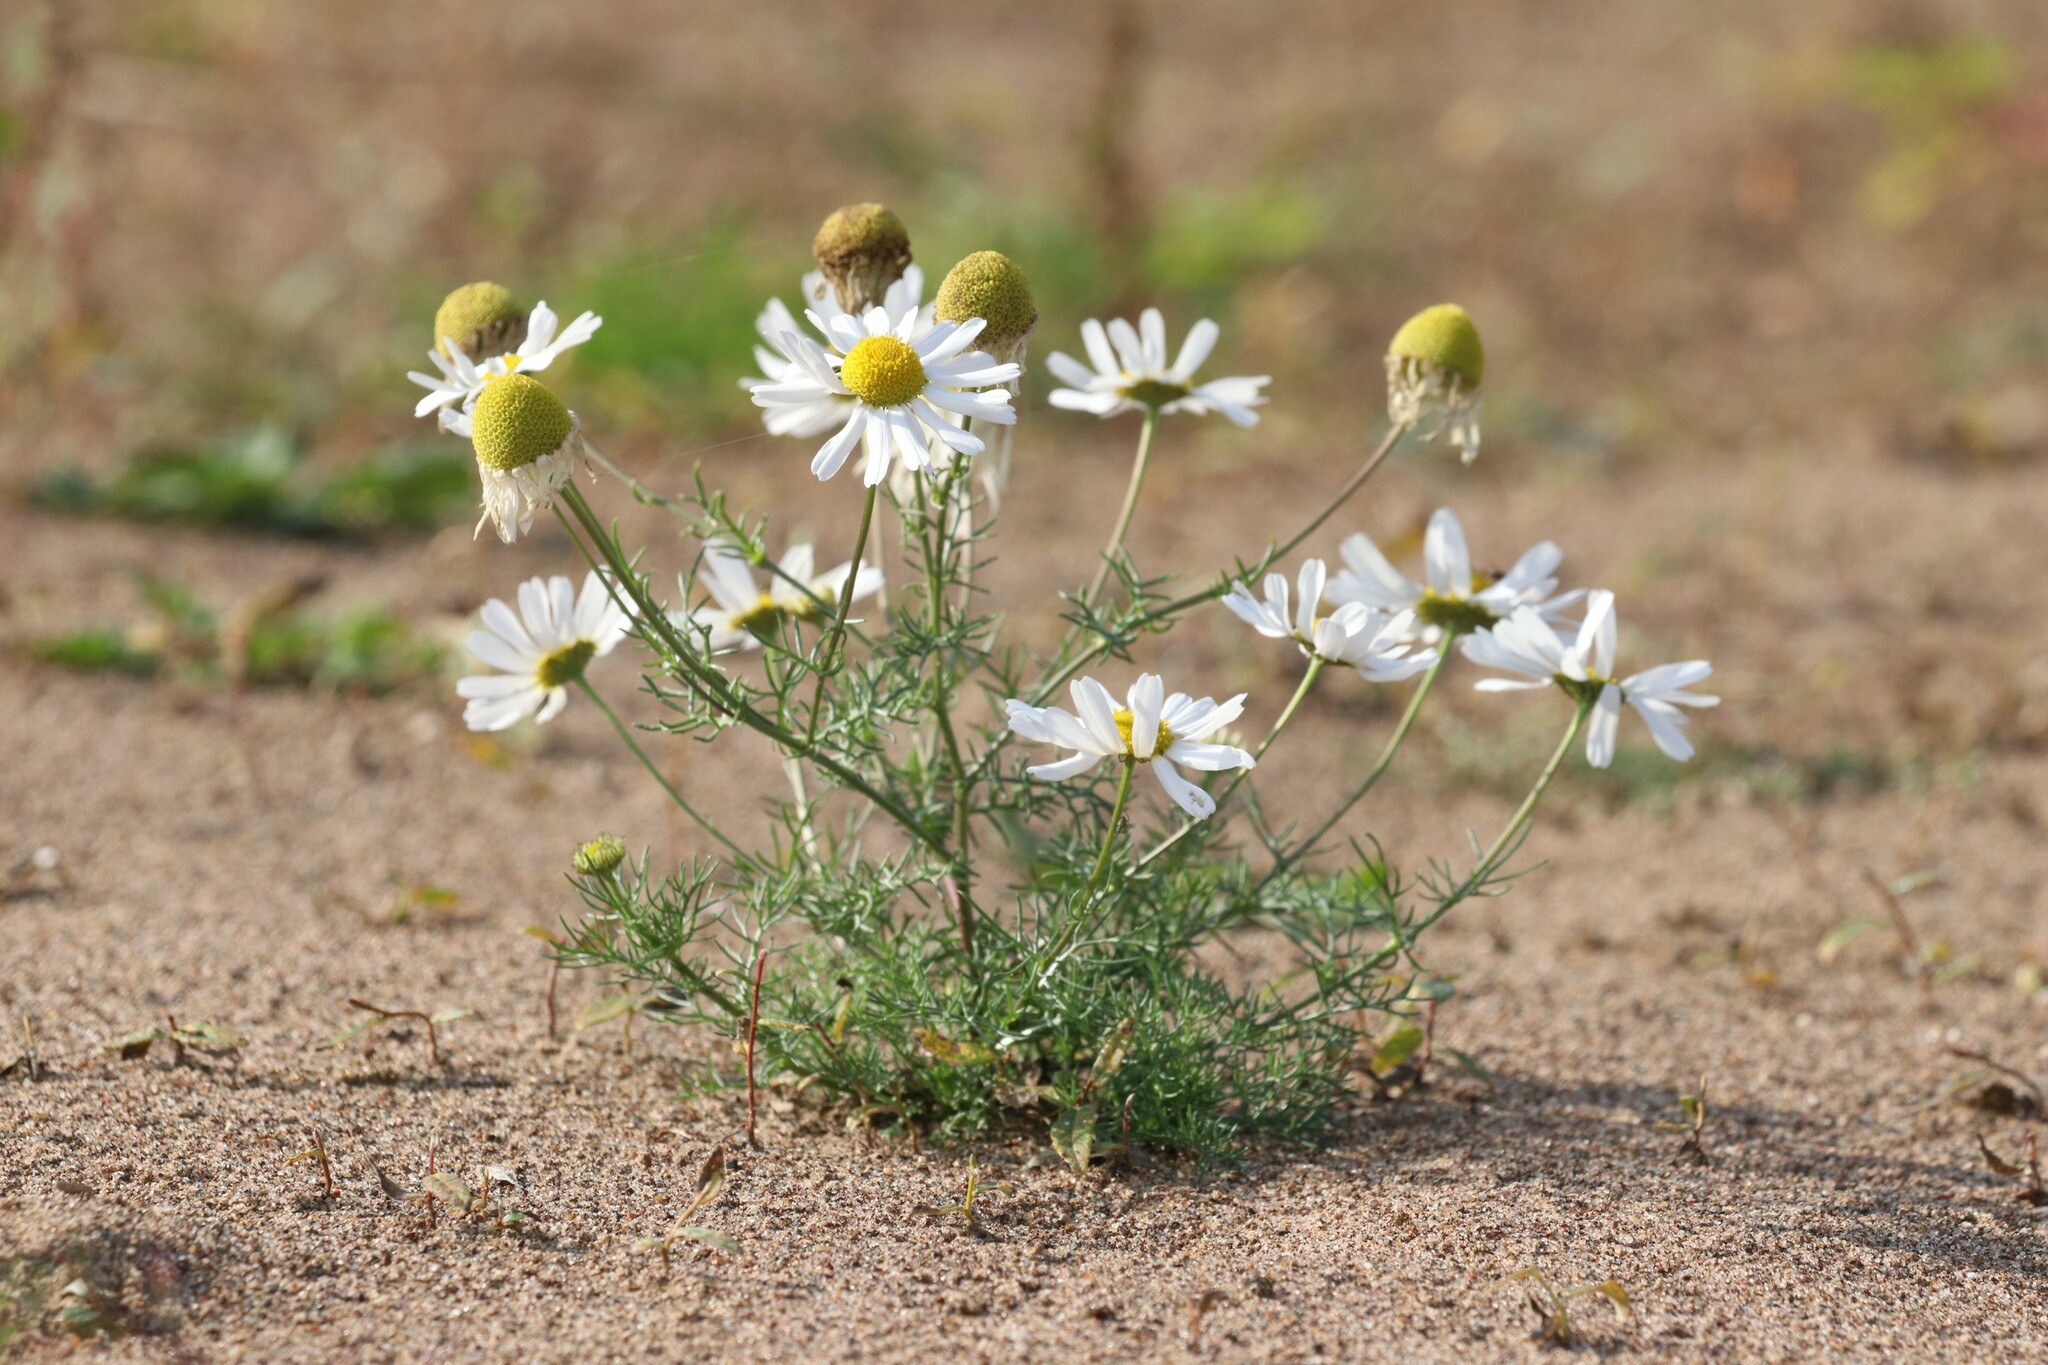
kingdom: Plantae
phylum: Tracheophyta
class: Magnoliopsida
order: Asterales
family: Asteraceae
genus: Tripleurospermum
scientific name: Tripleurospermum inodorum
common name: Scentless mayweed
